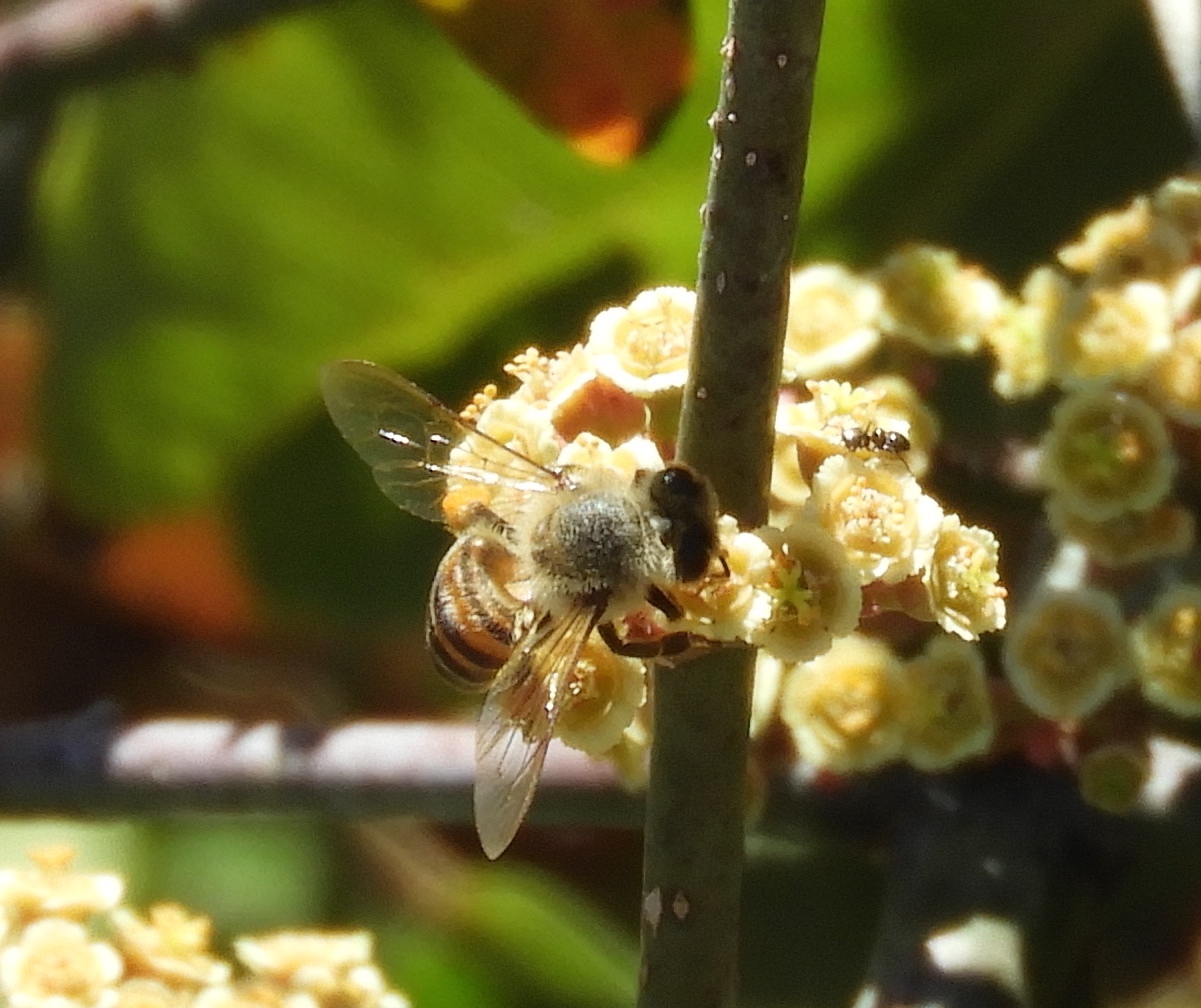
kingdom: Animalia
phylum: Arthropoda
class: Insecta
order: Hymenoptera
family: Apidae
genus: Apis
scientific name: Apis mellifera
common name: Honey bee
